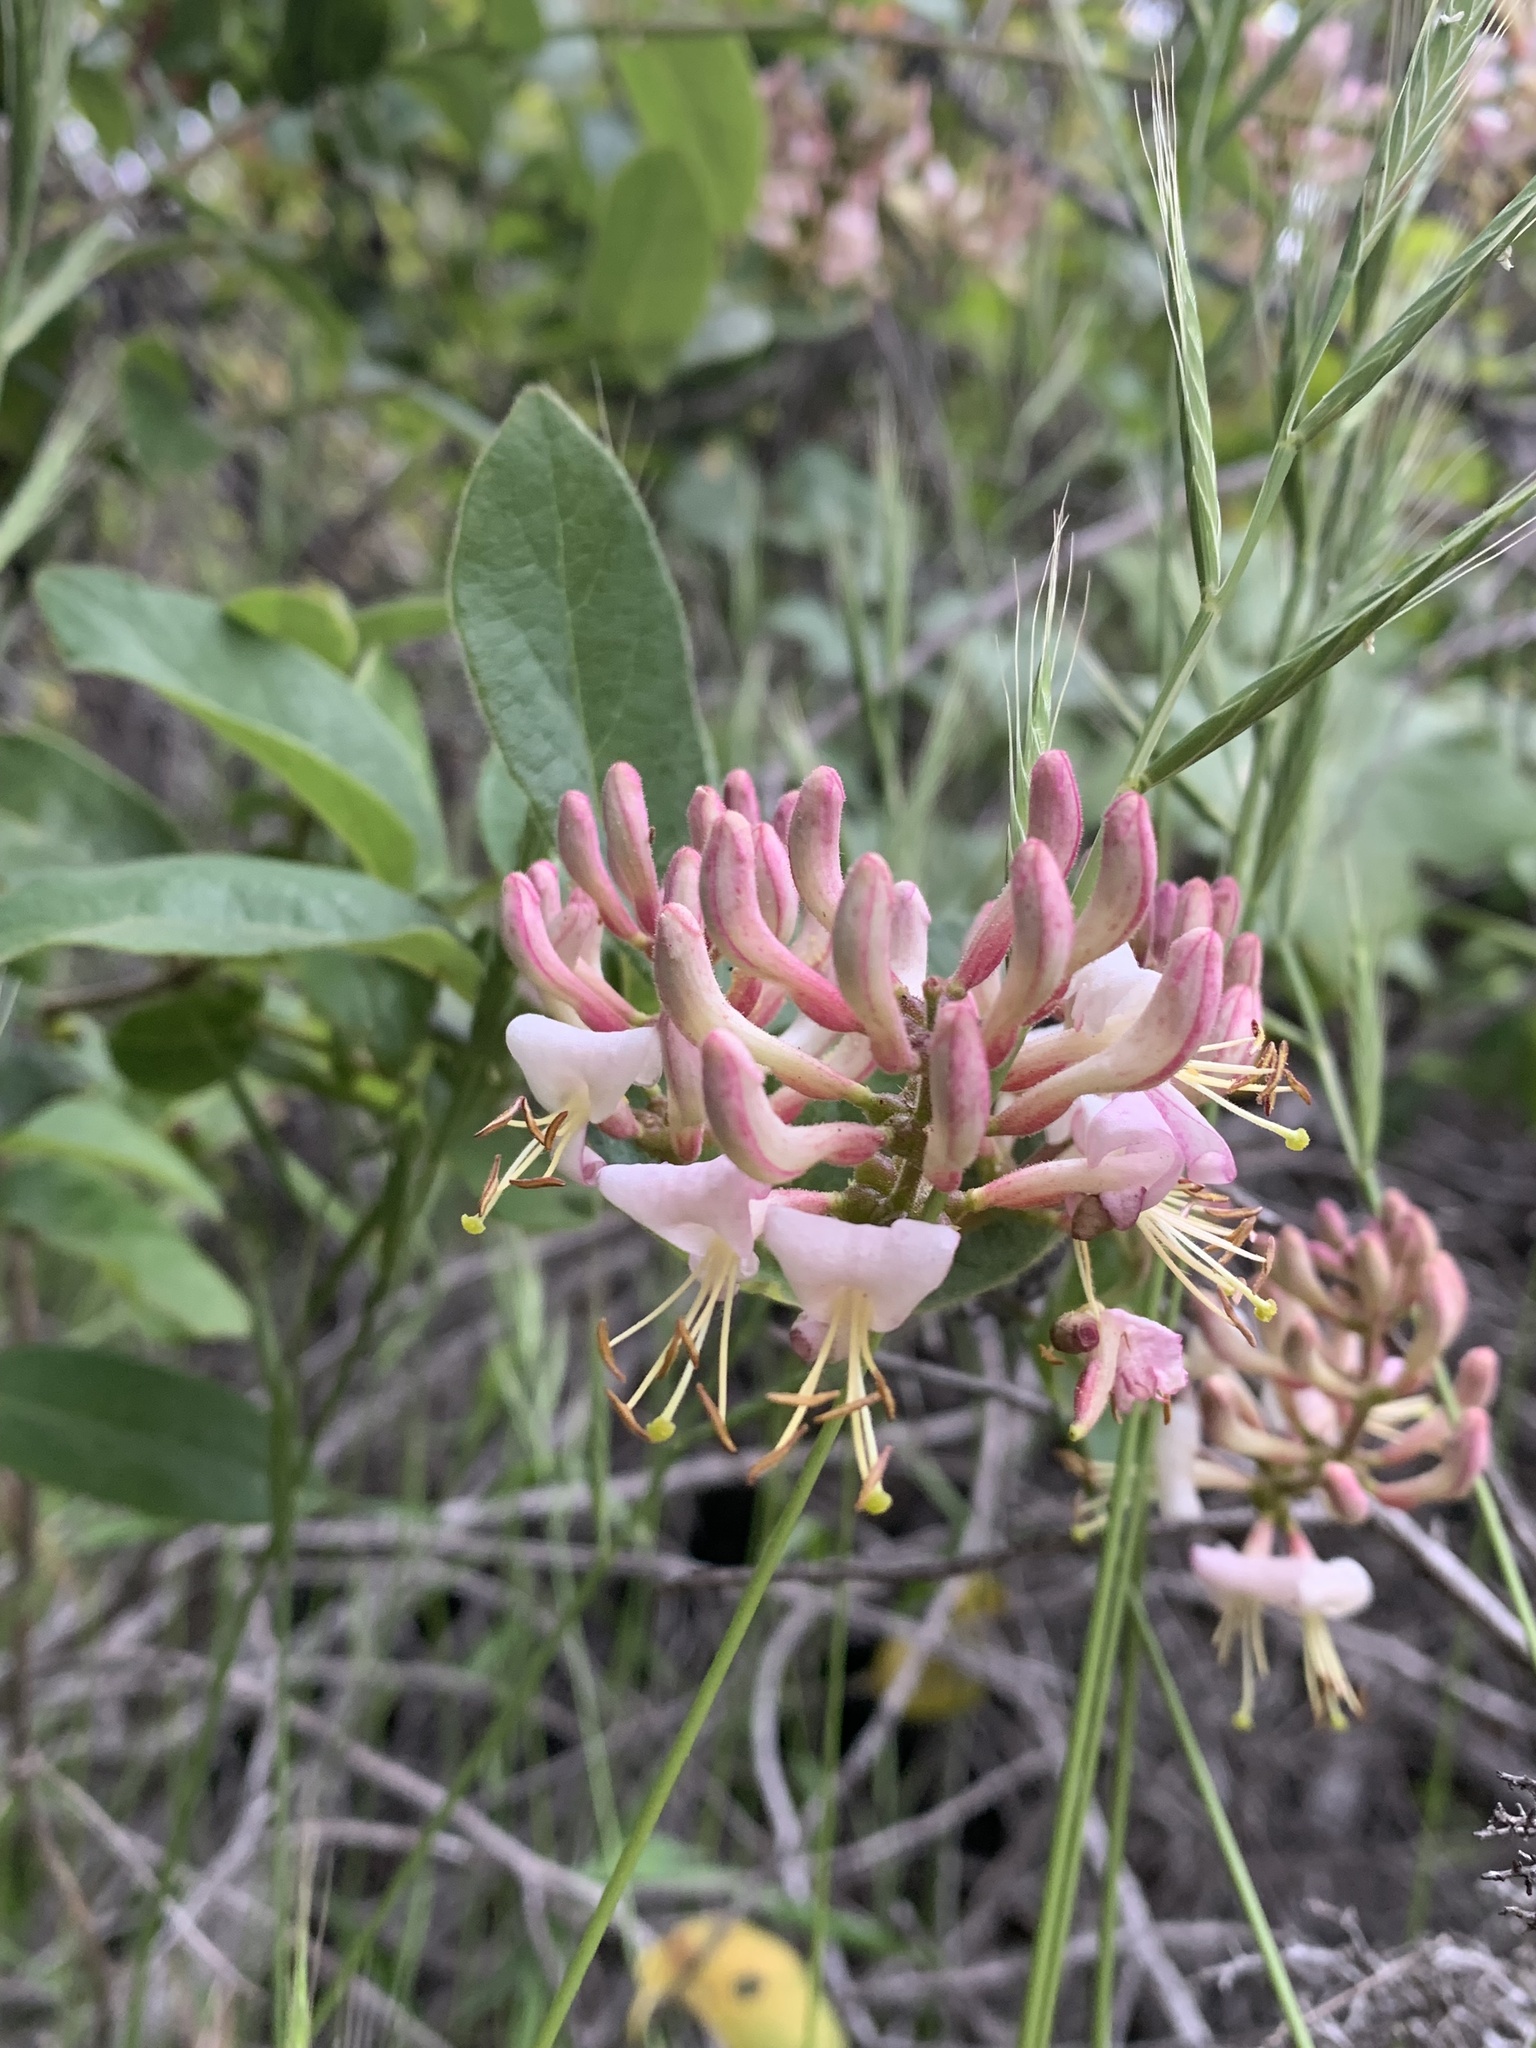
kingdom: Plantae
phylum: Tracheophyta
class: Magnoliopsida
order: Dipsacales
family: Caprifoliaceae
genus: Lonicera
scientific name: Lonicera hispidula
